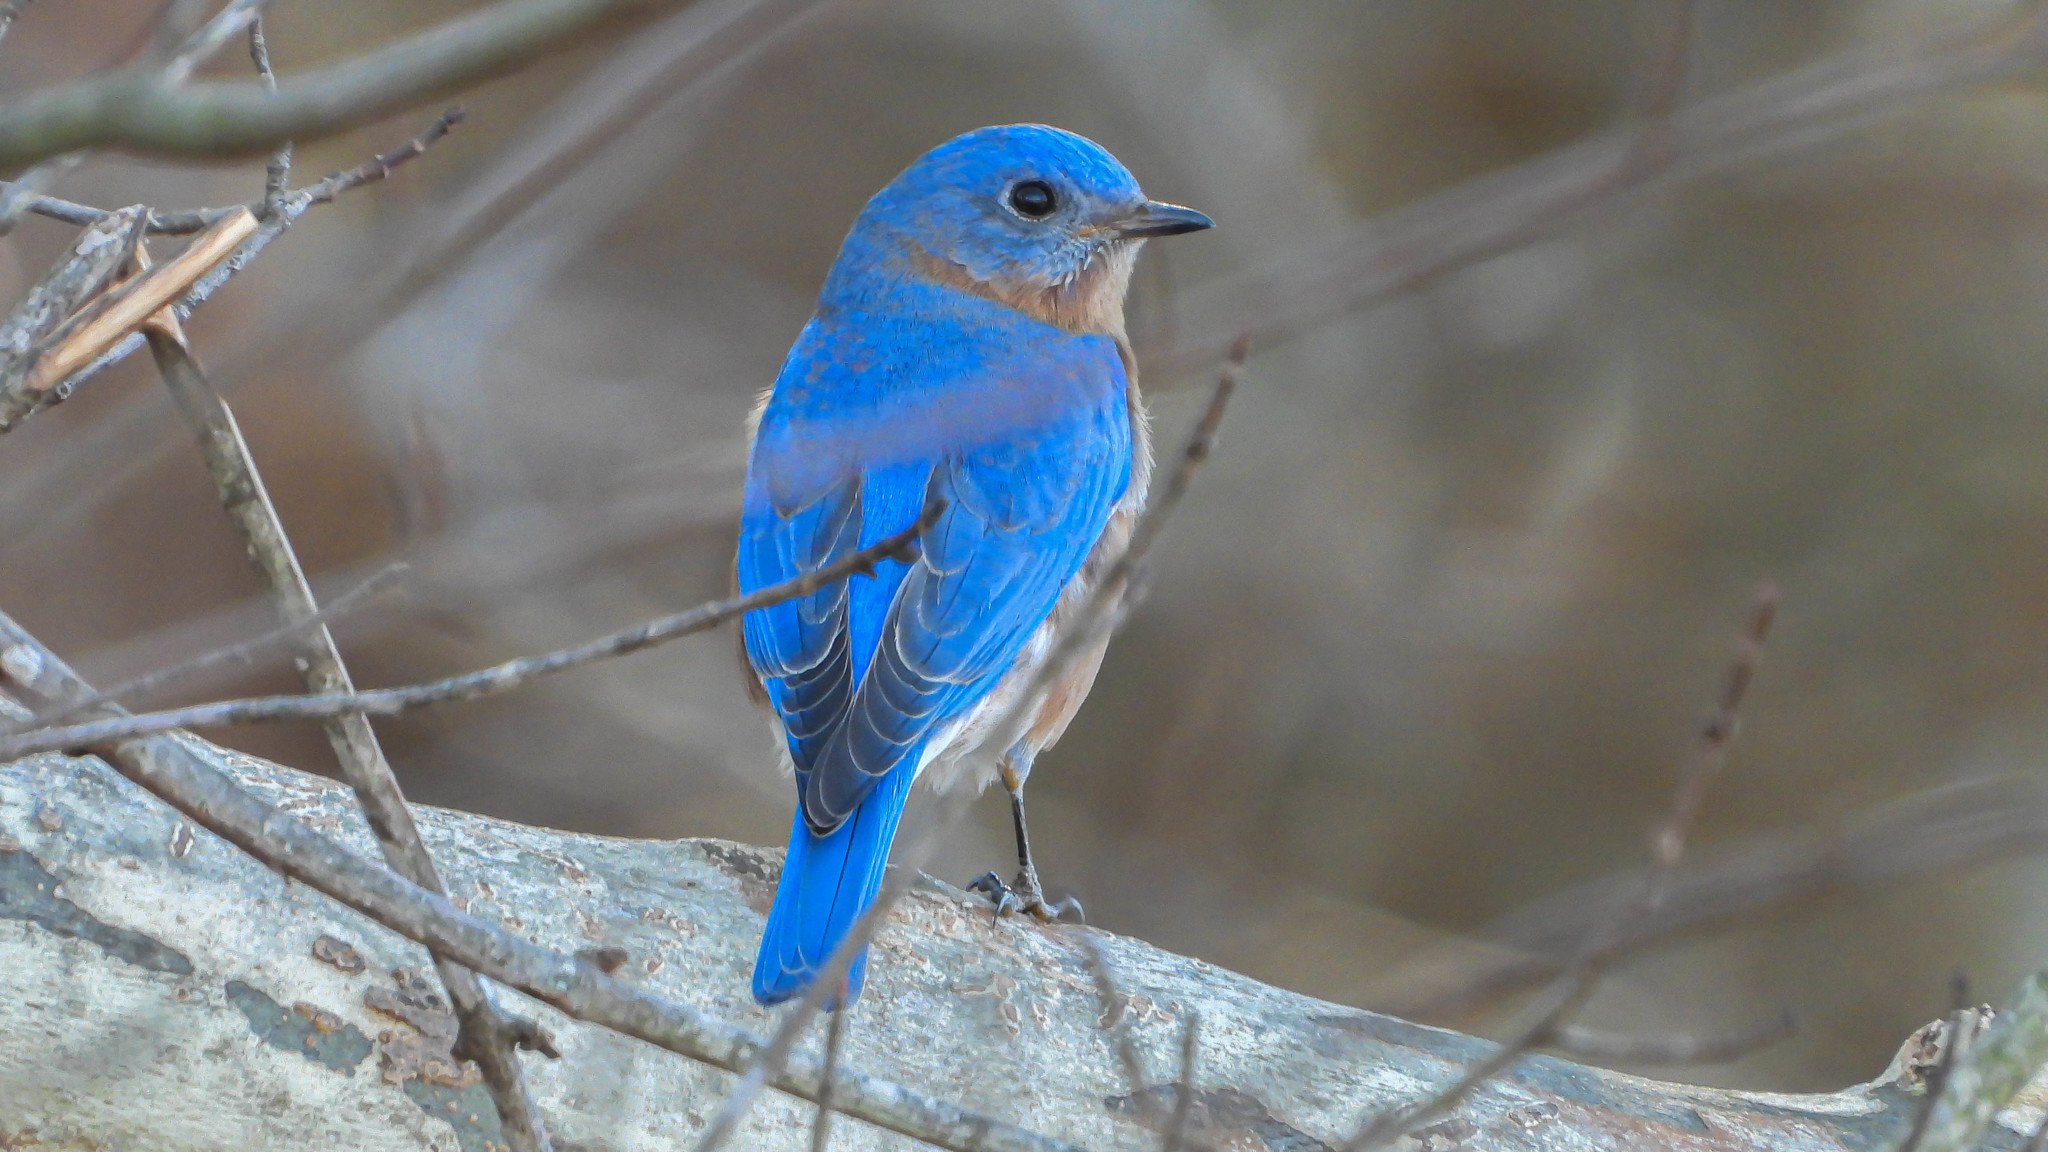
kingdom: Animalia
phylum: Chordata
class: Aves
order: Passeriformes
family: Turdidae
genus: Sialia
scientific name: Sialia sialis
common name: Eastern bluebird
